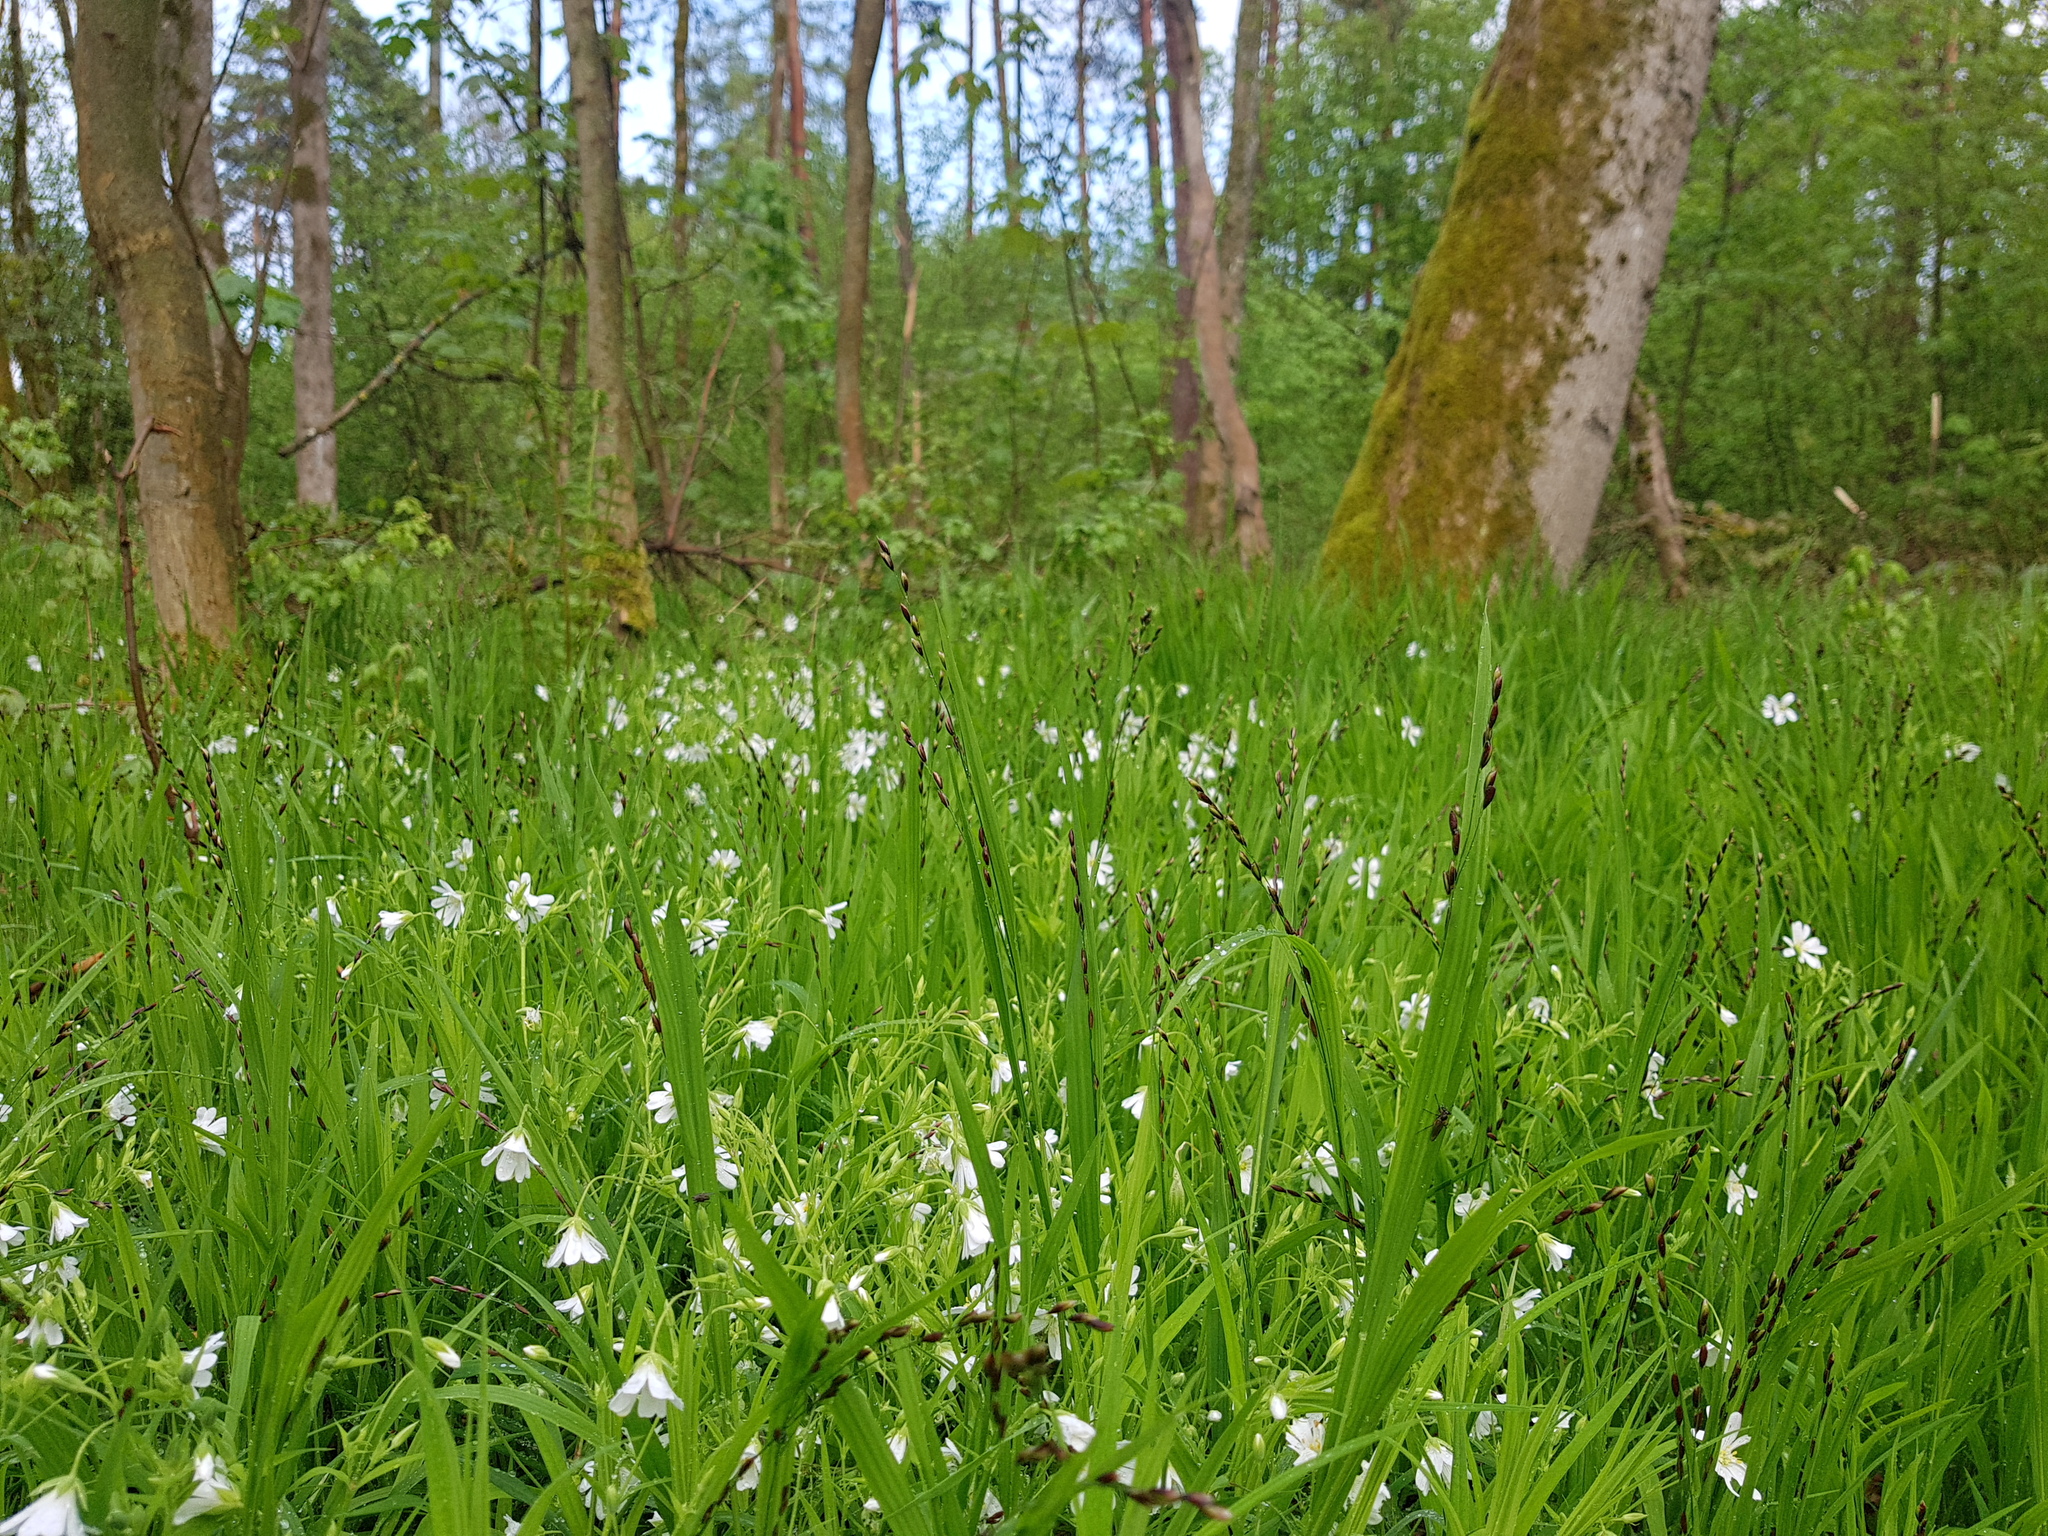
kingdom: Plantae
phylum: Tracheophyta
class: Liliopsida
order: Poales
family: Poaceae
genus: Melica
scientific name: Melica uniflora
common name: Wood melick
